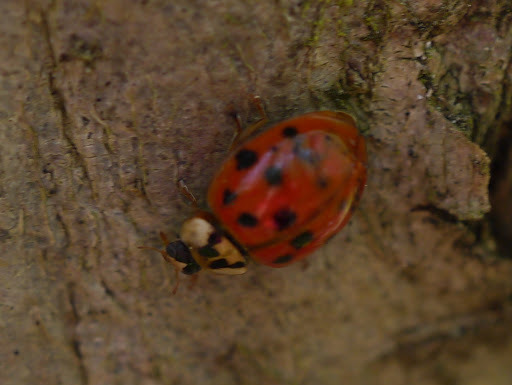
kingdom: Animalia
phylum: Arthropoda
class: Insecta
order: Coleoptera
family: Coccinellidae
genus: Harmonia
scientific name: Harmonia axyridis
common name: Harlequin ladybird
